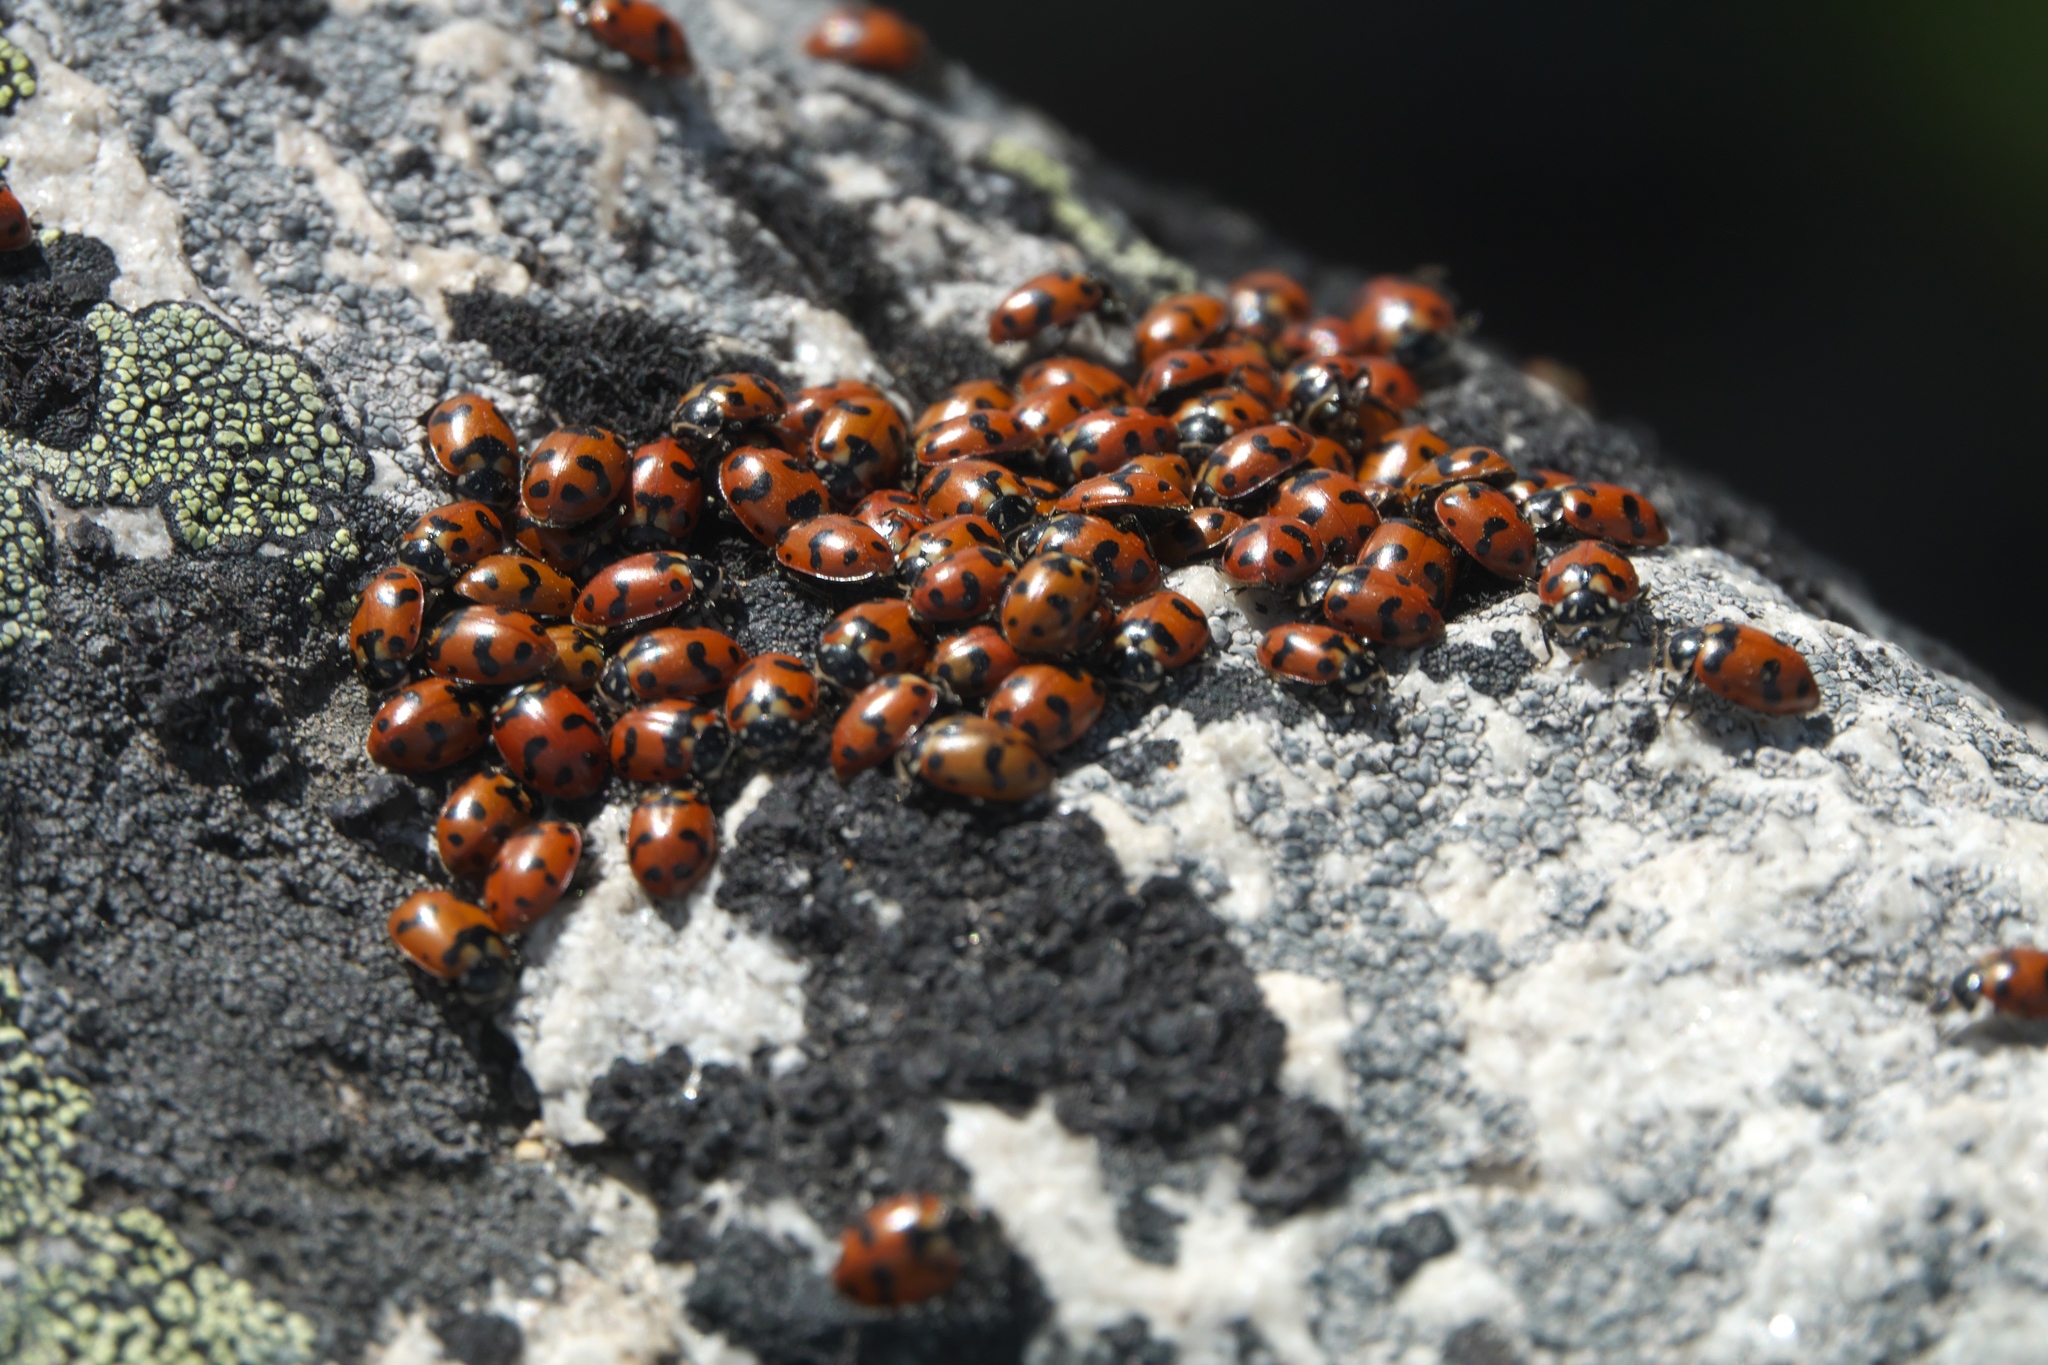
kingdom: Animalia
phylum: Arthropoda
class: Insecta
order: Coleoptera
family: Coccinellidae
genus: Hippodamia
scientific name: Hippodamia caseyi
